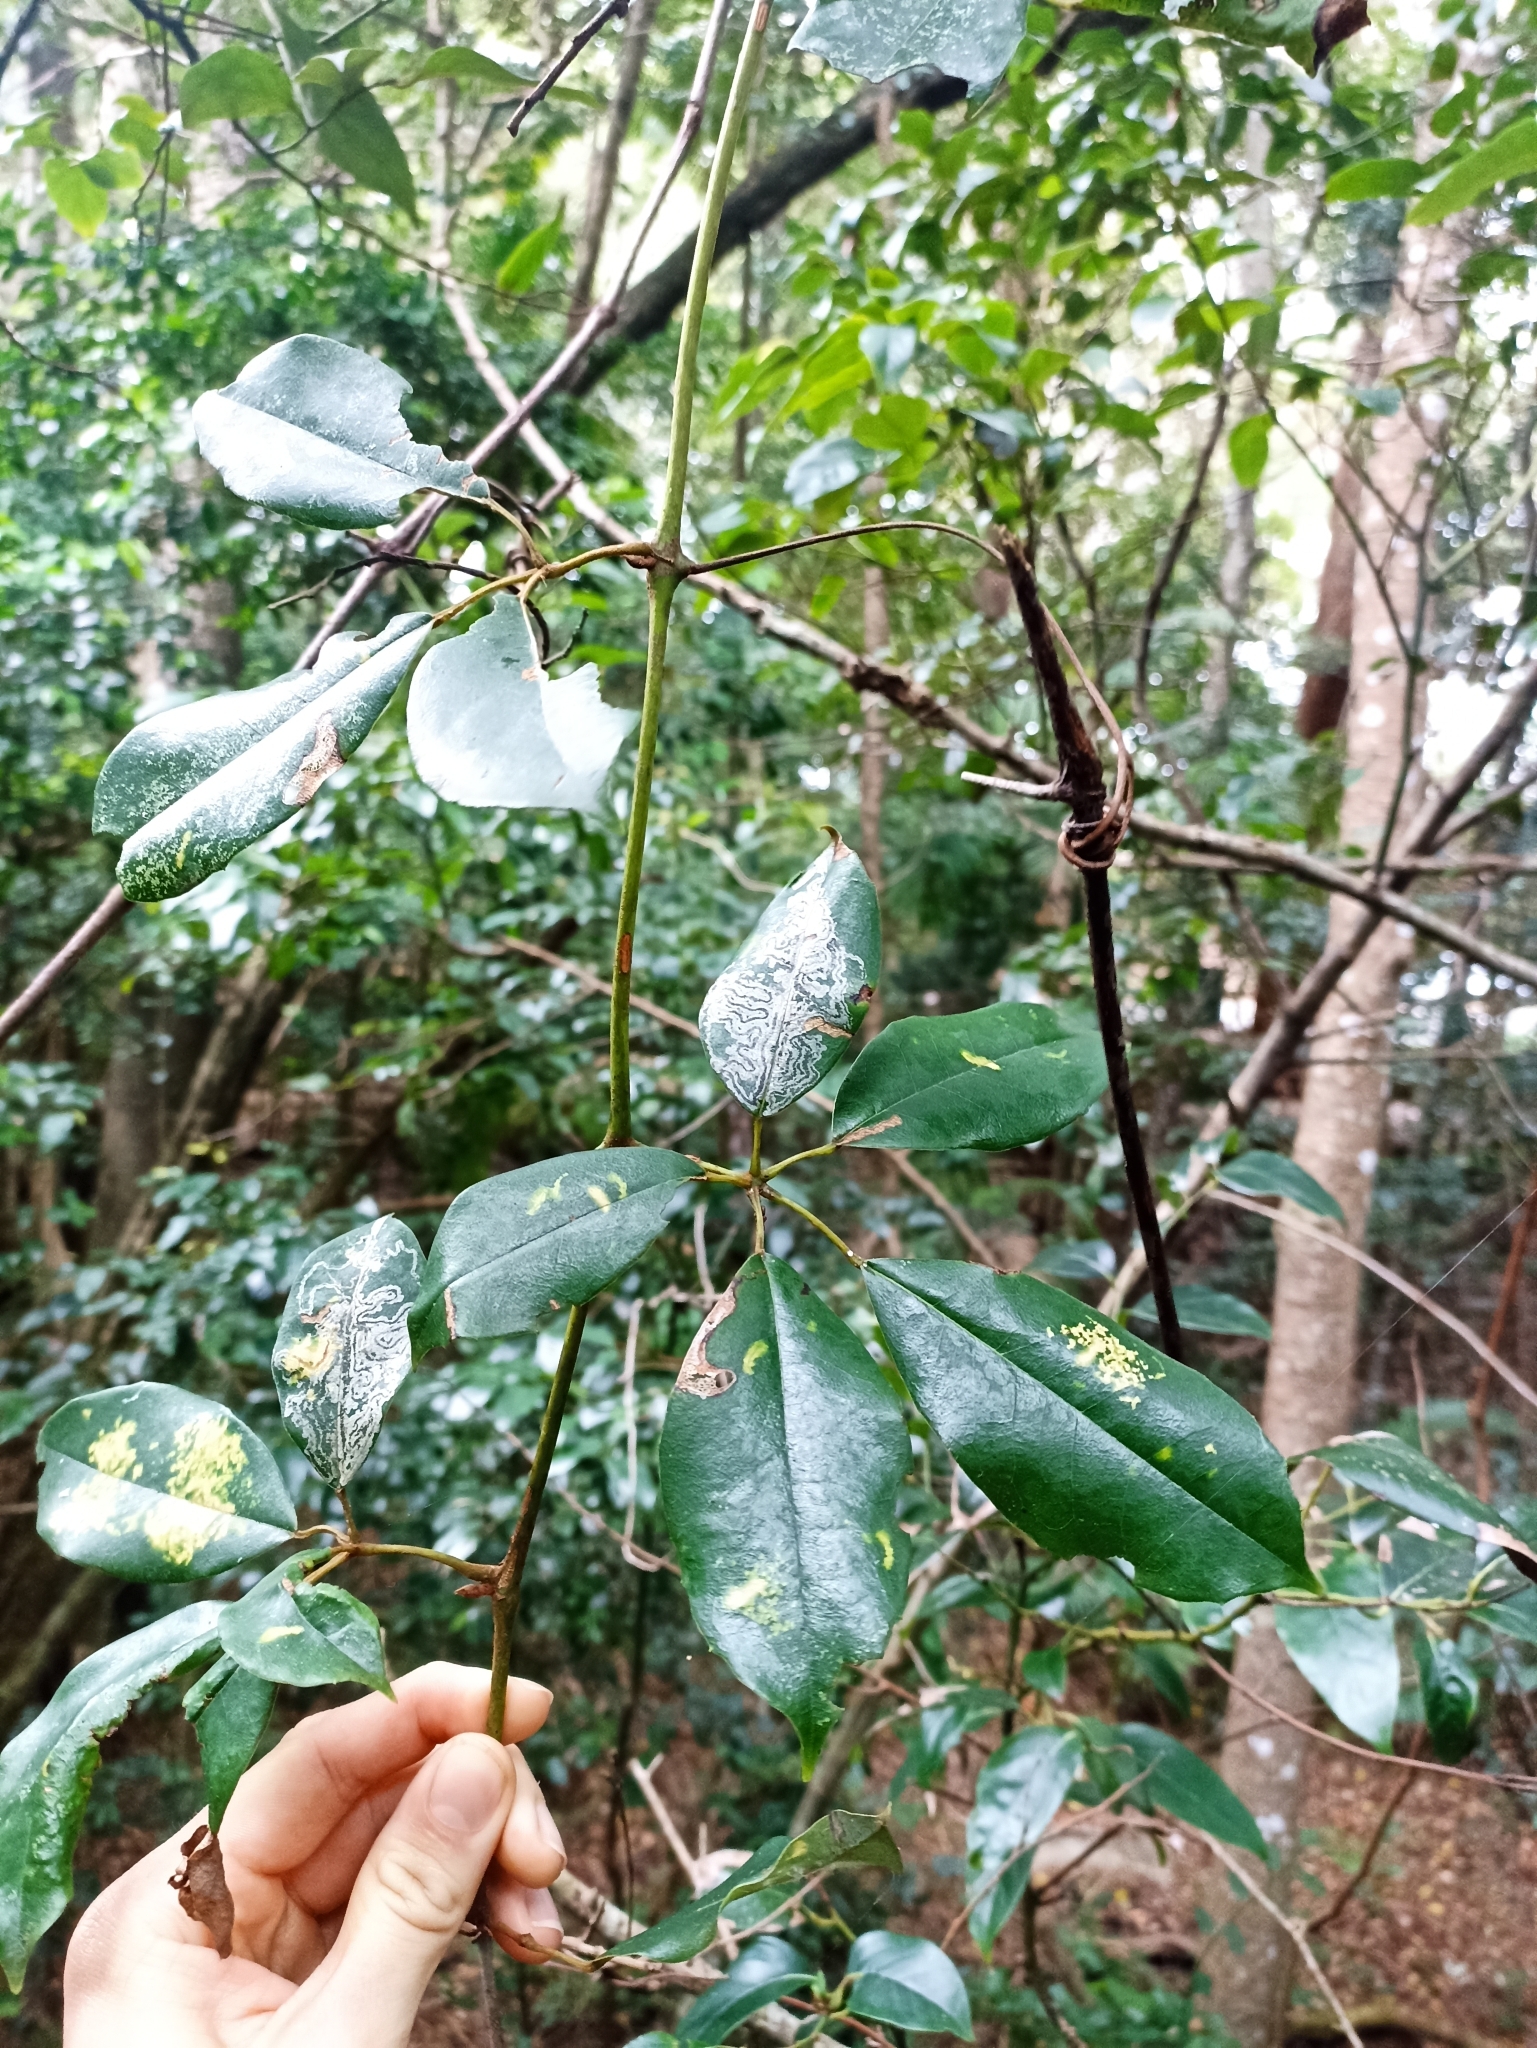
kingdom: Plantae
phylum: Tracheophyta
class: Magnoliopsida
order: Vitales
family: Vitaceae
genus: Nothocissus
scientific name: Nothocissus hypoglauca
